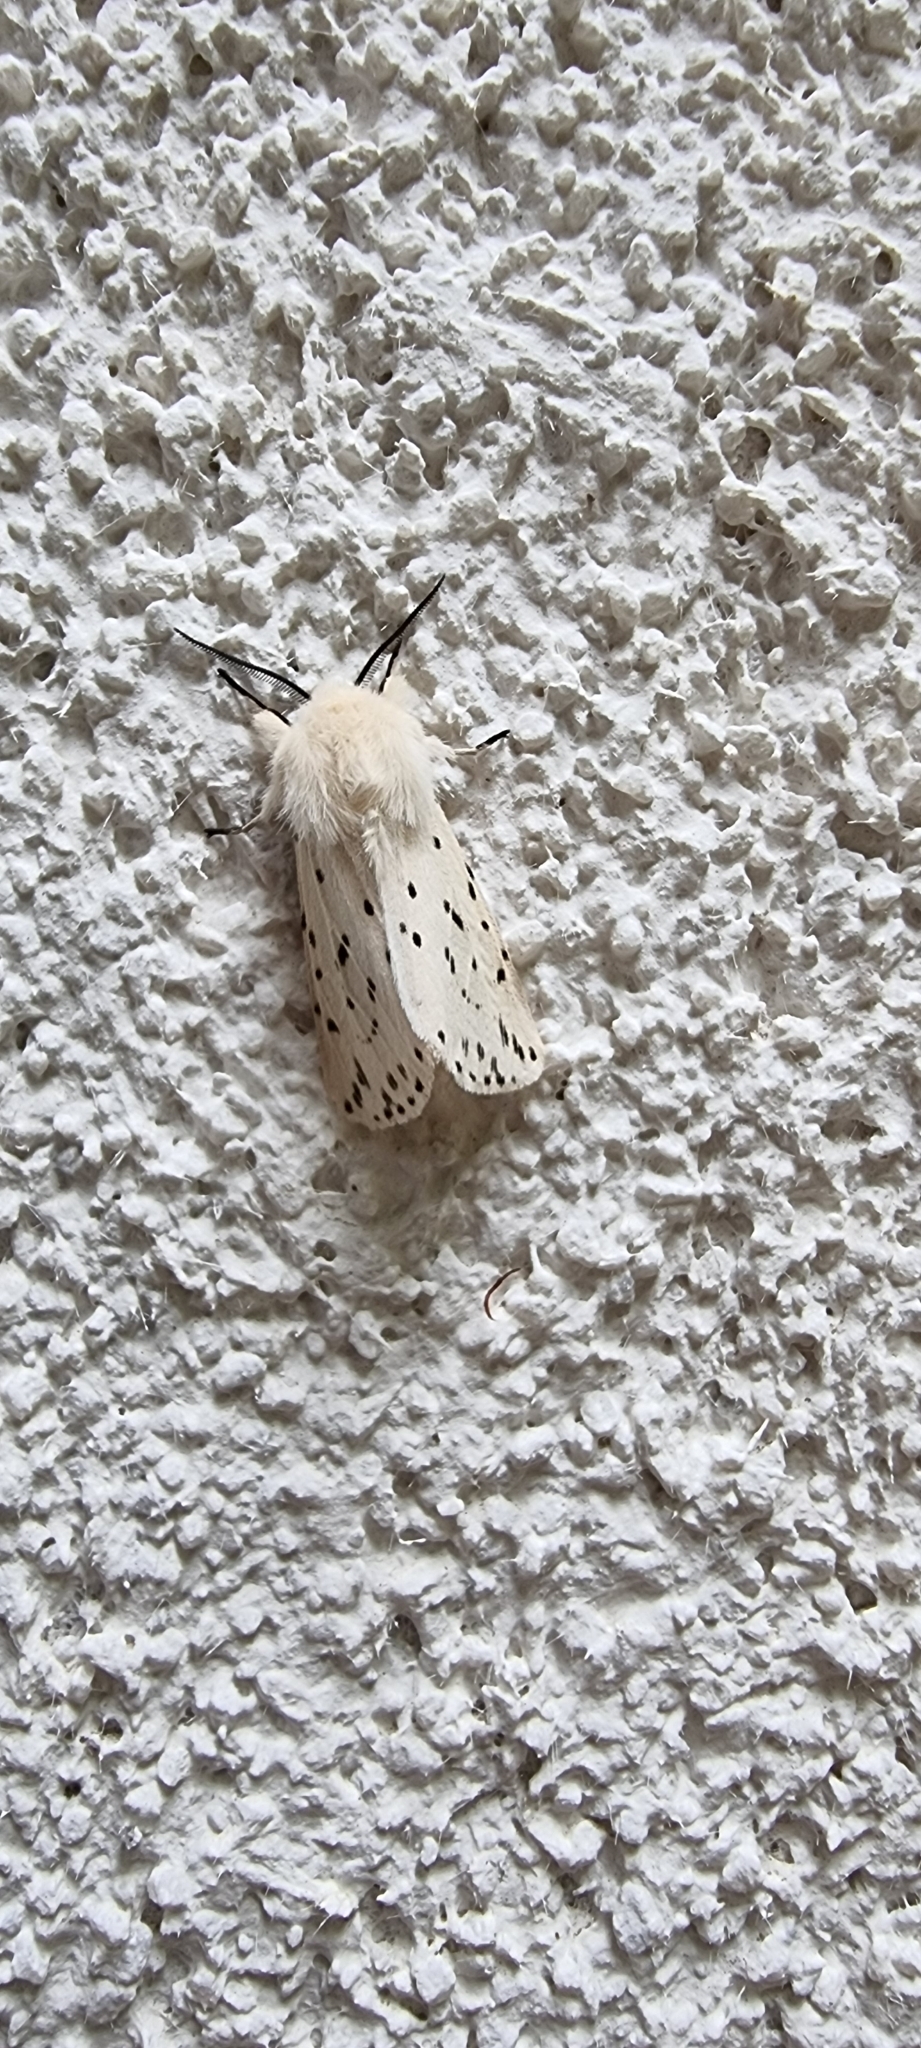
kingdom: Animalia
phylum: Arthropoda
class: Insecta
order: Lepidoptera
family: Erebidae
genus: Spilosoma
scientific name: Spilosoma lubricipeda
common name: White ermine
